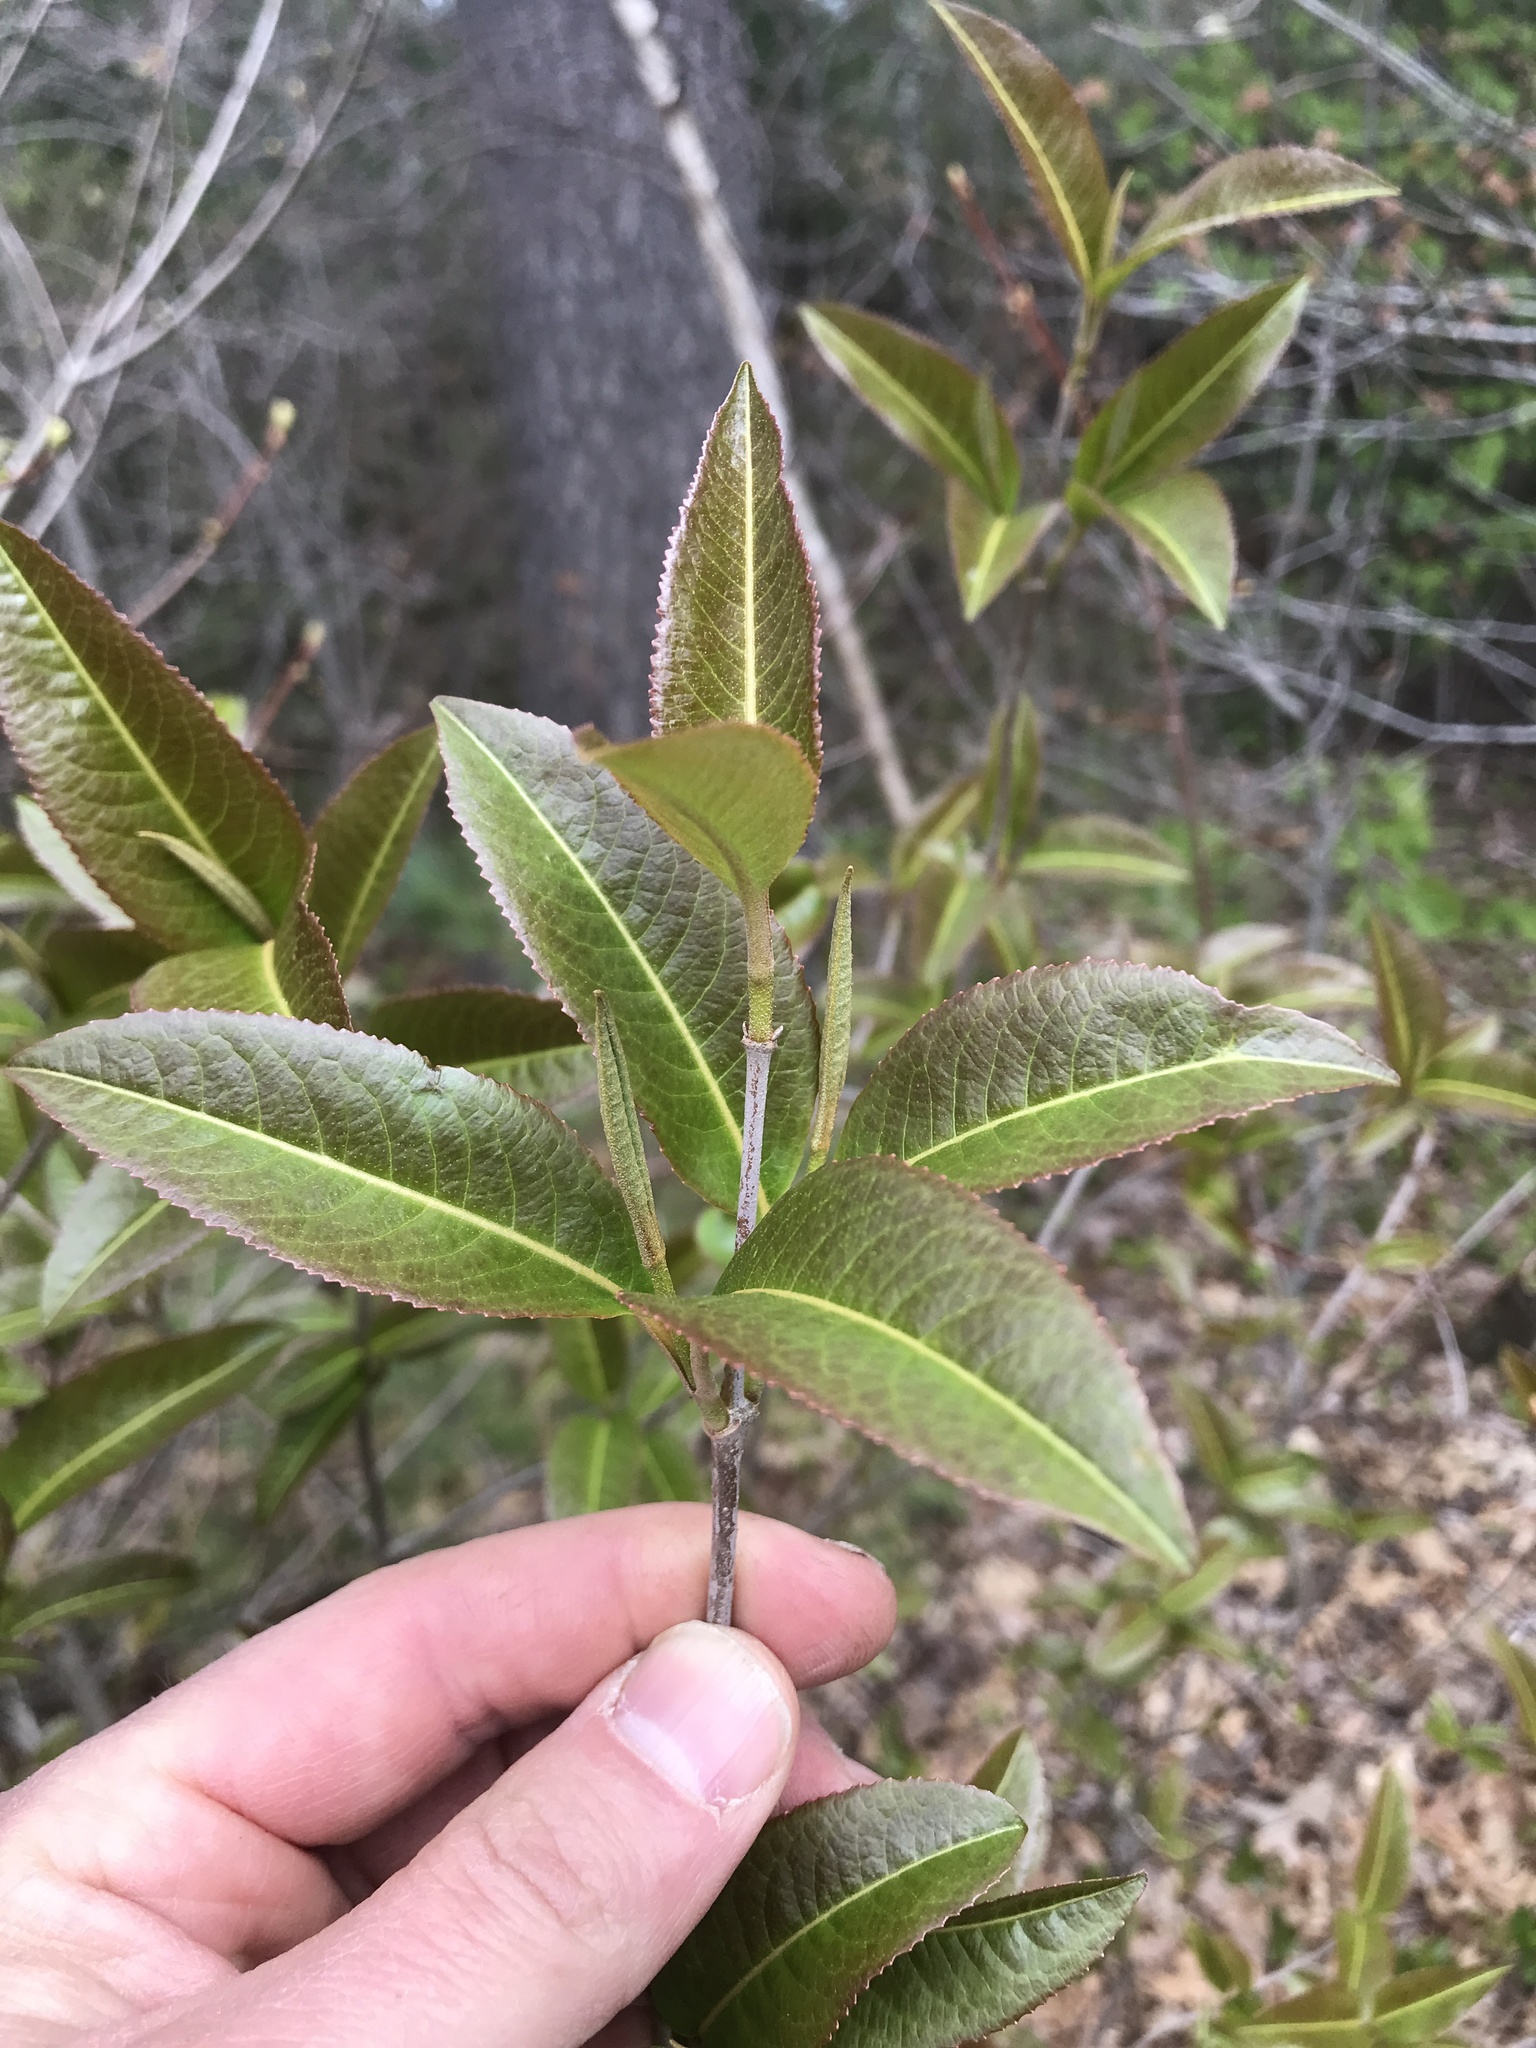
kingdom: Plantae
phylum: Tracheophyta
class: Magnoliopsida
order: Dipsacales
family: Viburnaceae
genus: Viburnum
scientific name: Viburnum cassinoides
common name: Swamp haw
